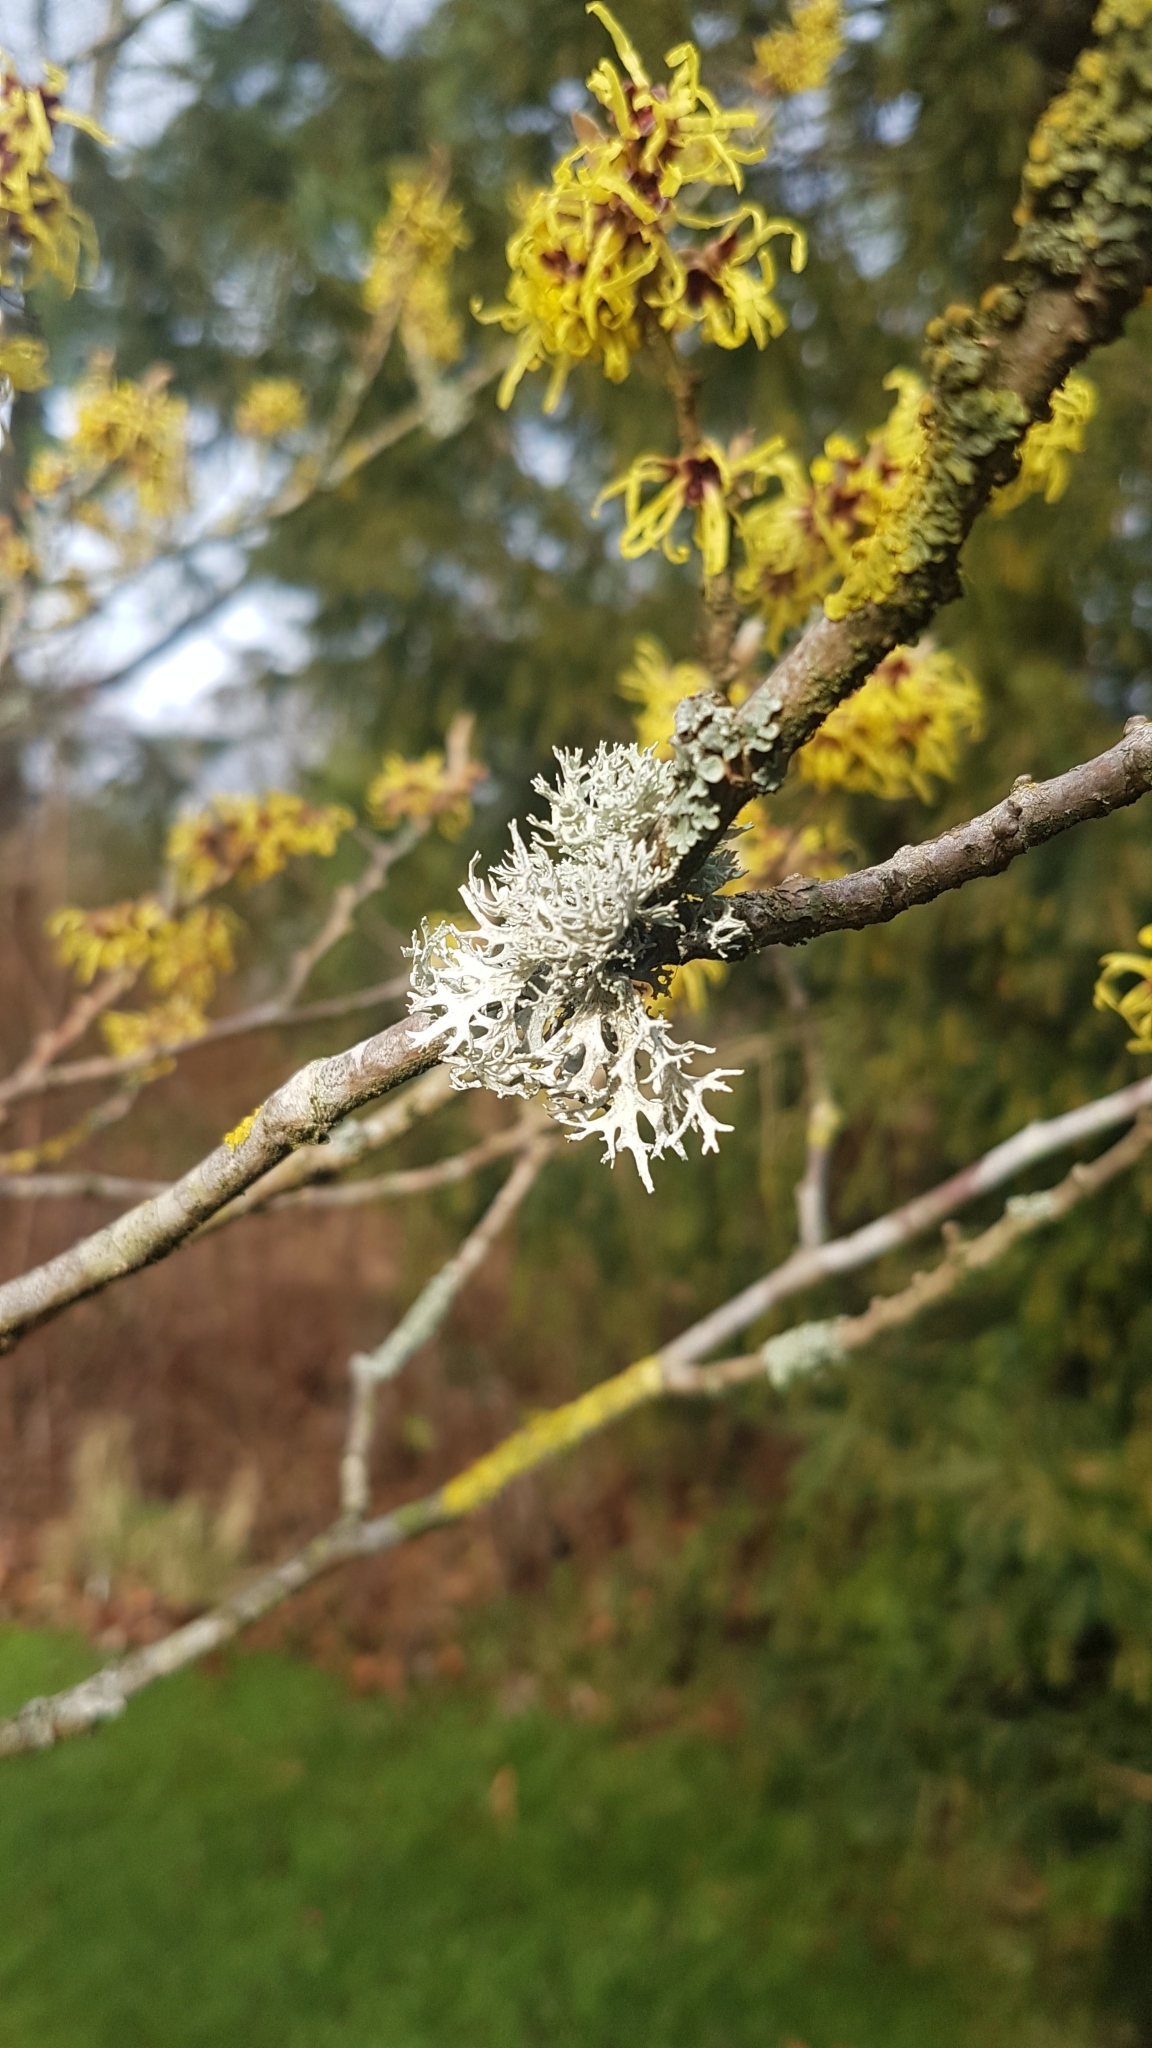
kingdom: Fungi
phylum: Ascomycota
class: Lecanoromycetes
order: Lecanorales
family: Parmeliaceae
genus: Evernia
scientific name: Evernia prunastri
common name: Oak moss
